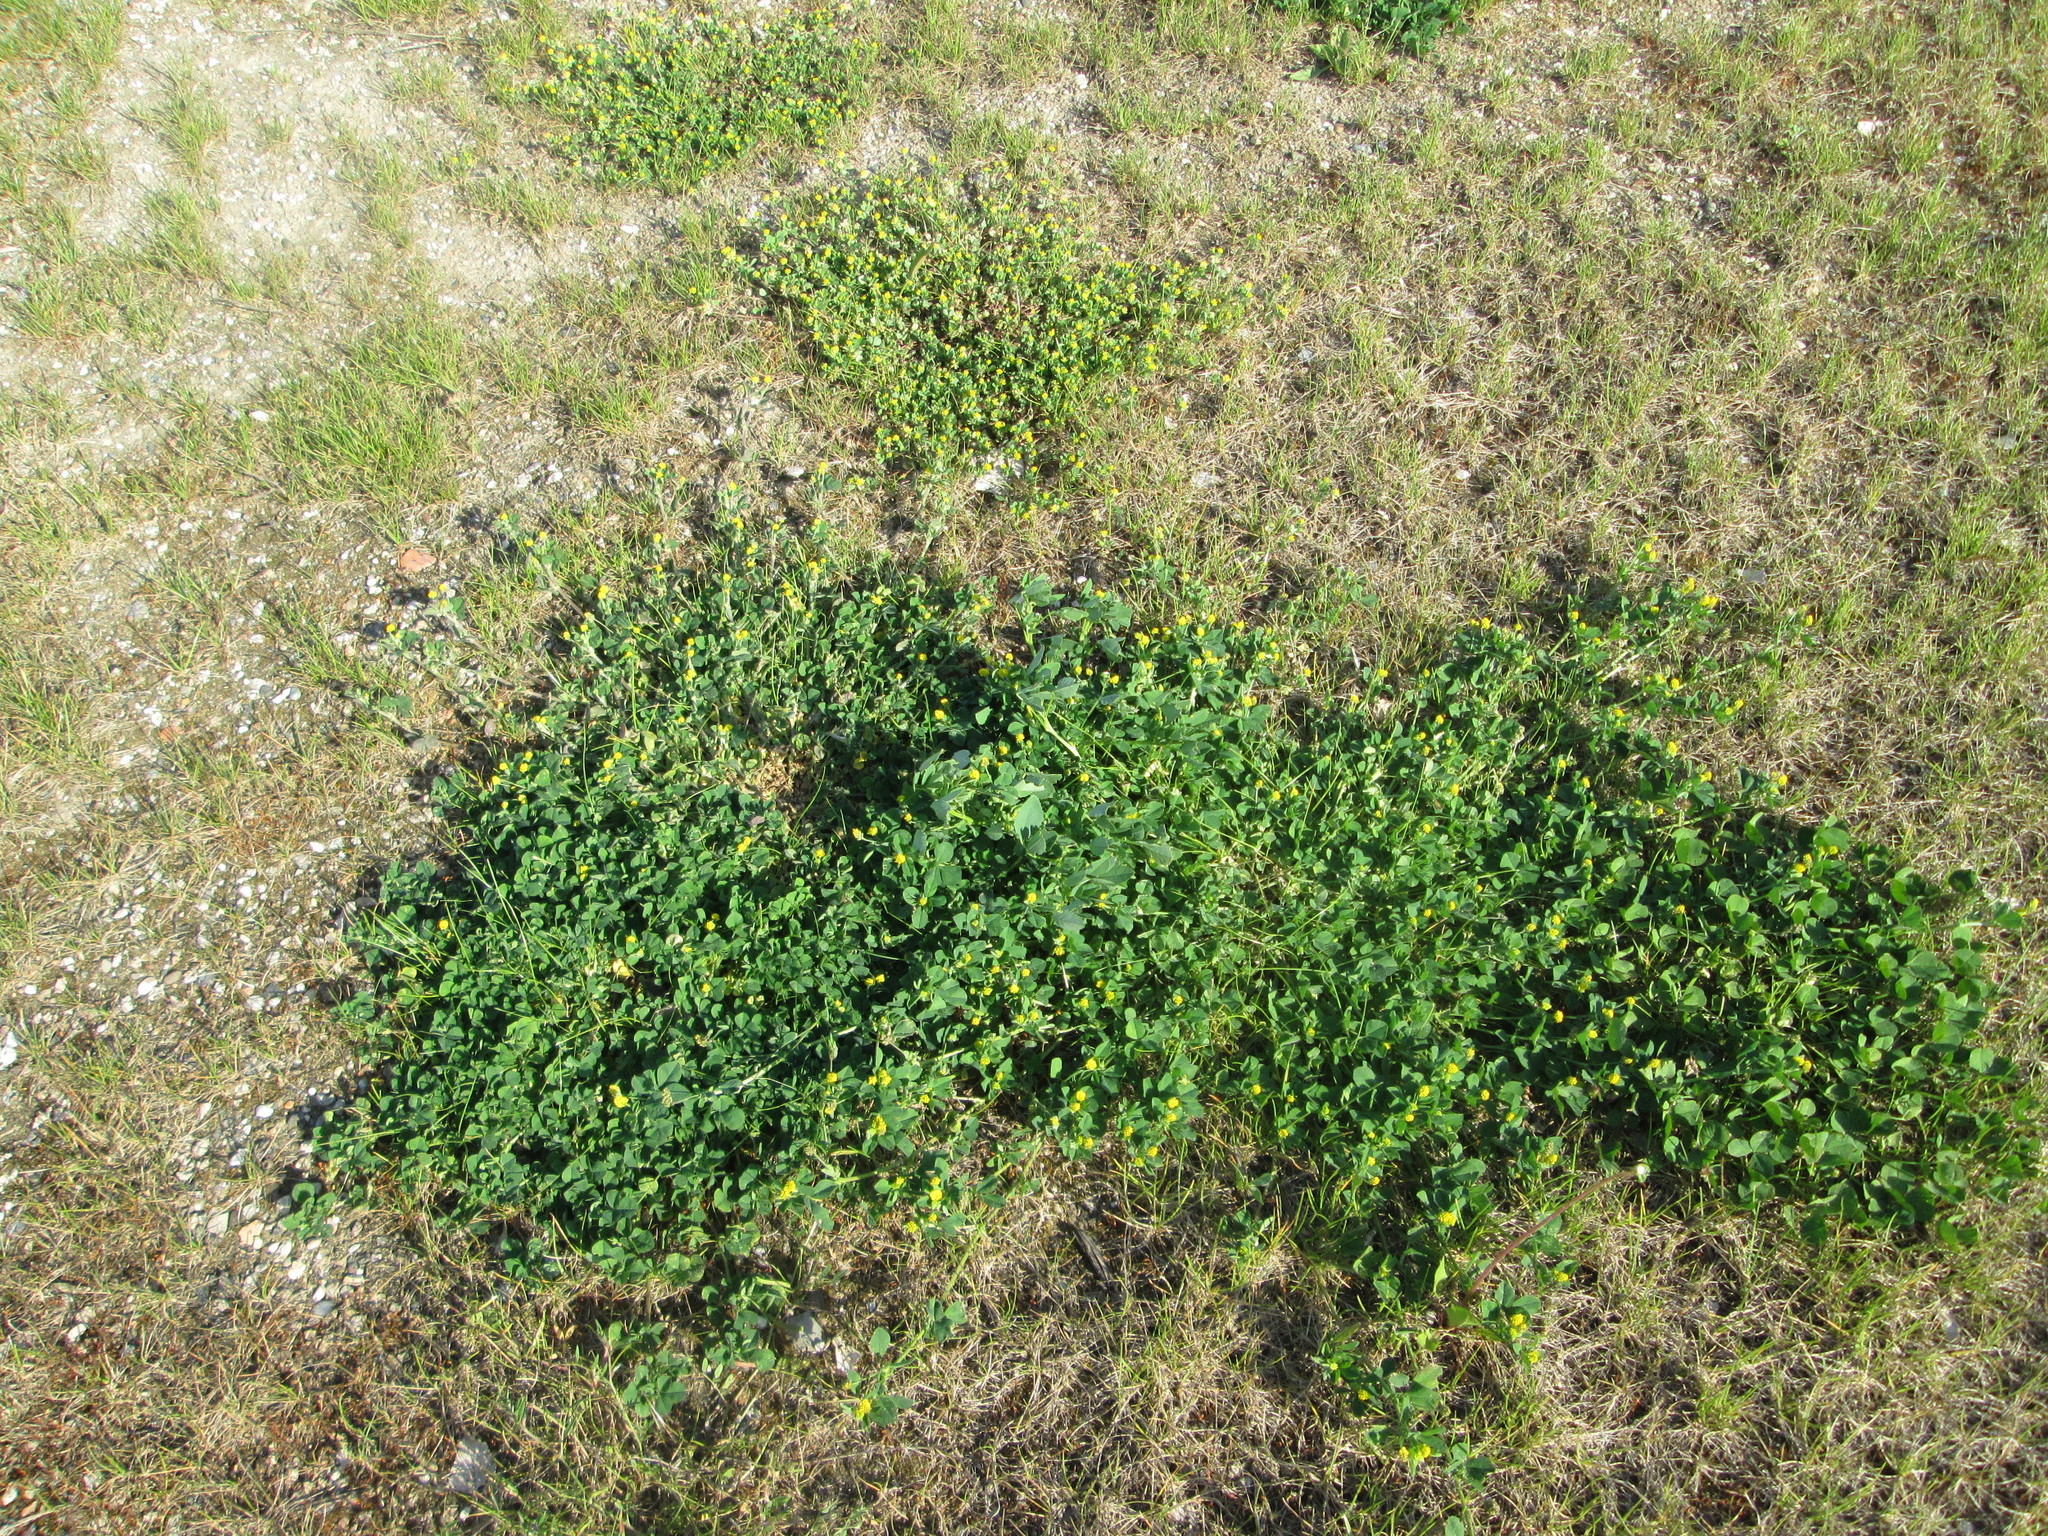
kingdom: Plantae
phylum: Tracheophyta
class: Magnoliopsida
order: Fabales
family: Fabaceae
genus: Medicago
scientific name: Medicago lupulina
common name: Black medick
